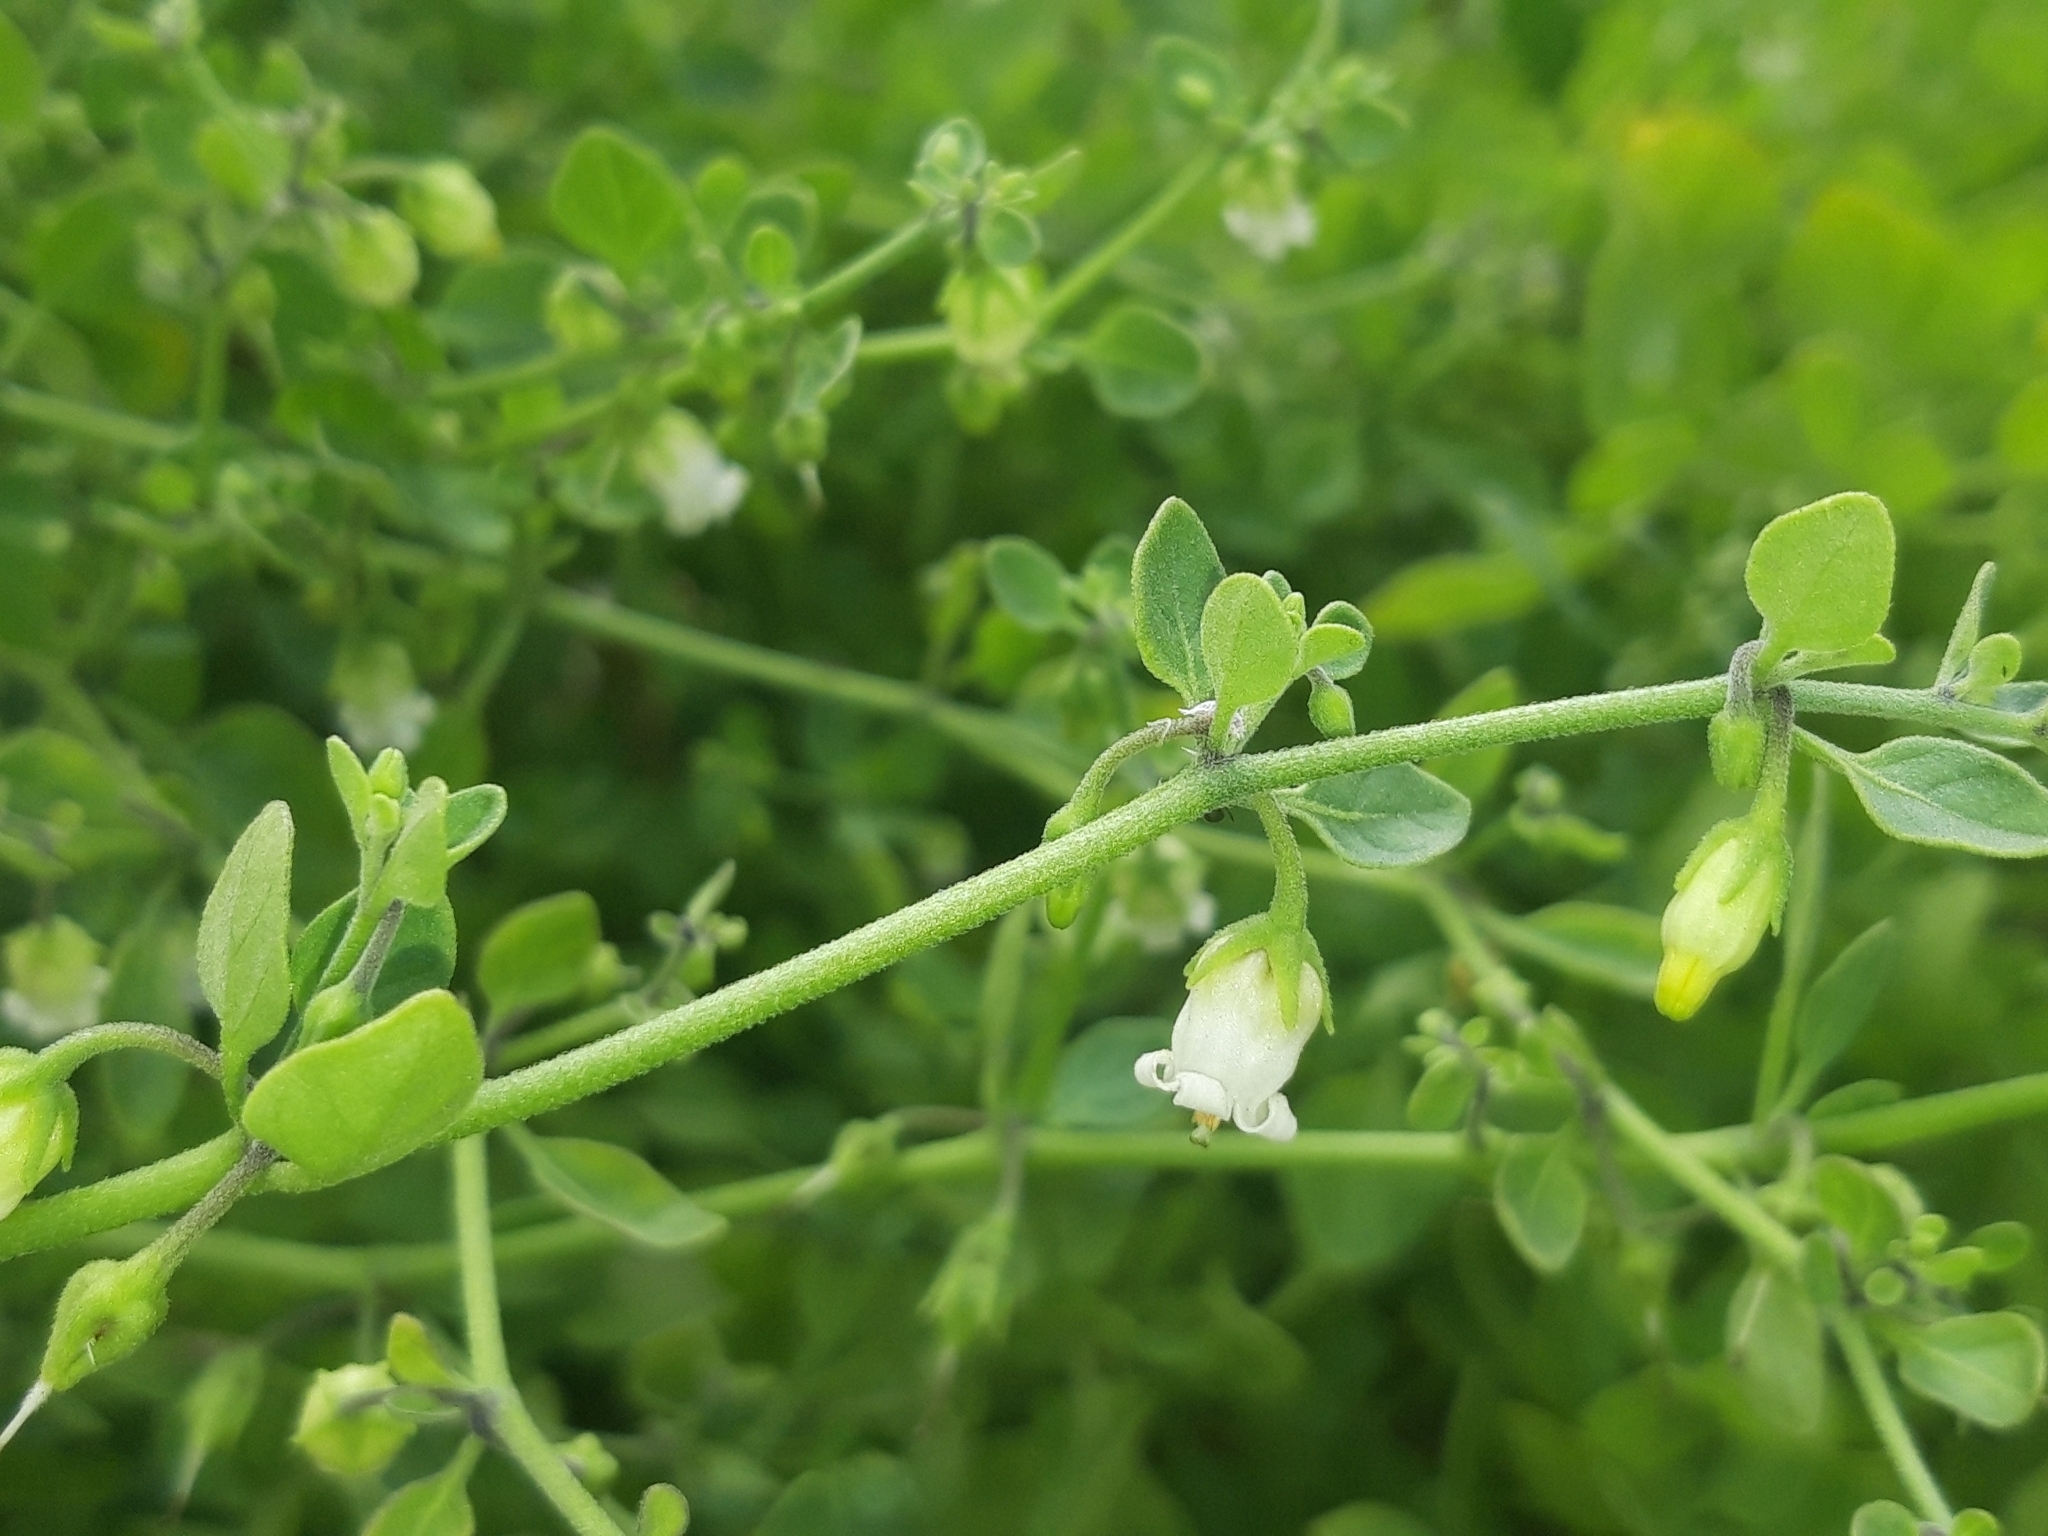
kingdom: Plantae
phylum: Tracheophyta
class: Magnoliopsida
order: Solanales
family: Solanaceae
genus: Salpichroa
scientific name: Salpichroa origanifolia
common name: Lily-of-the-valley-vine
